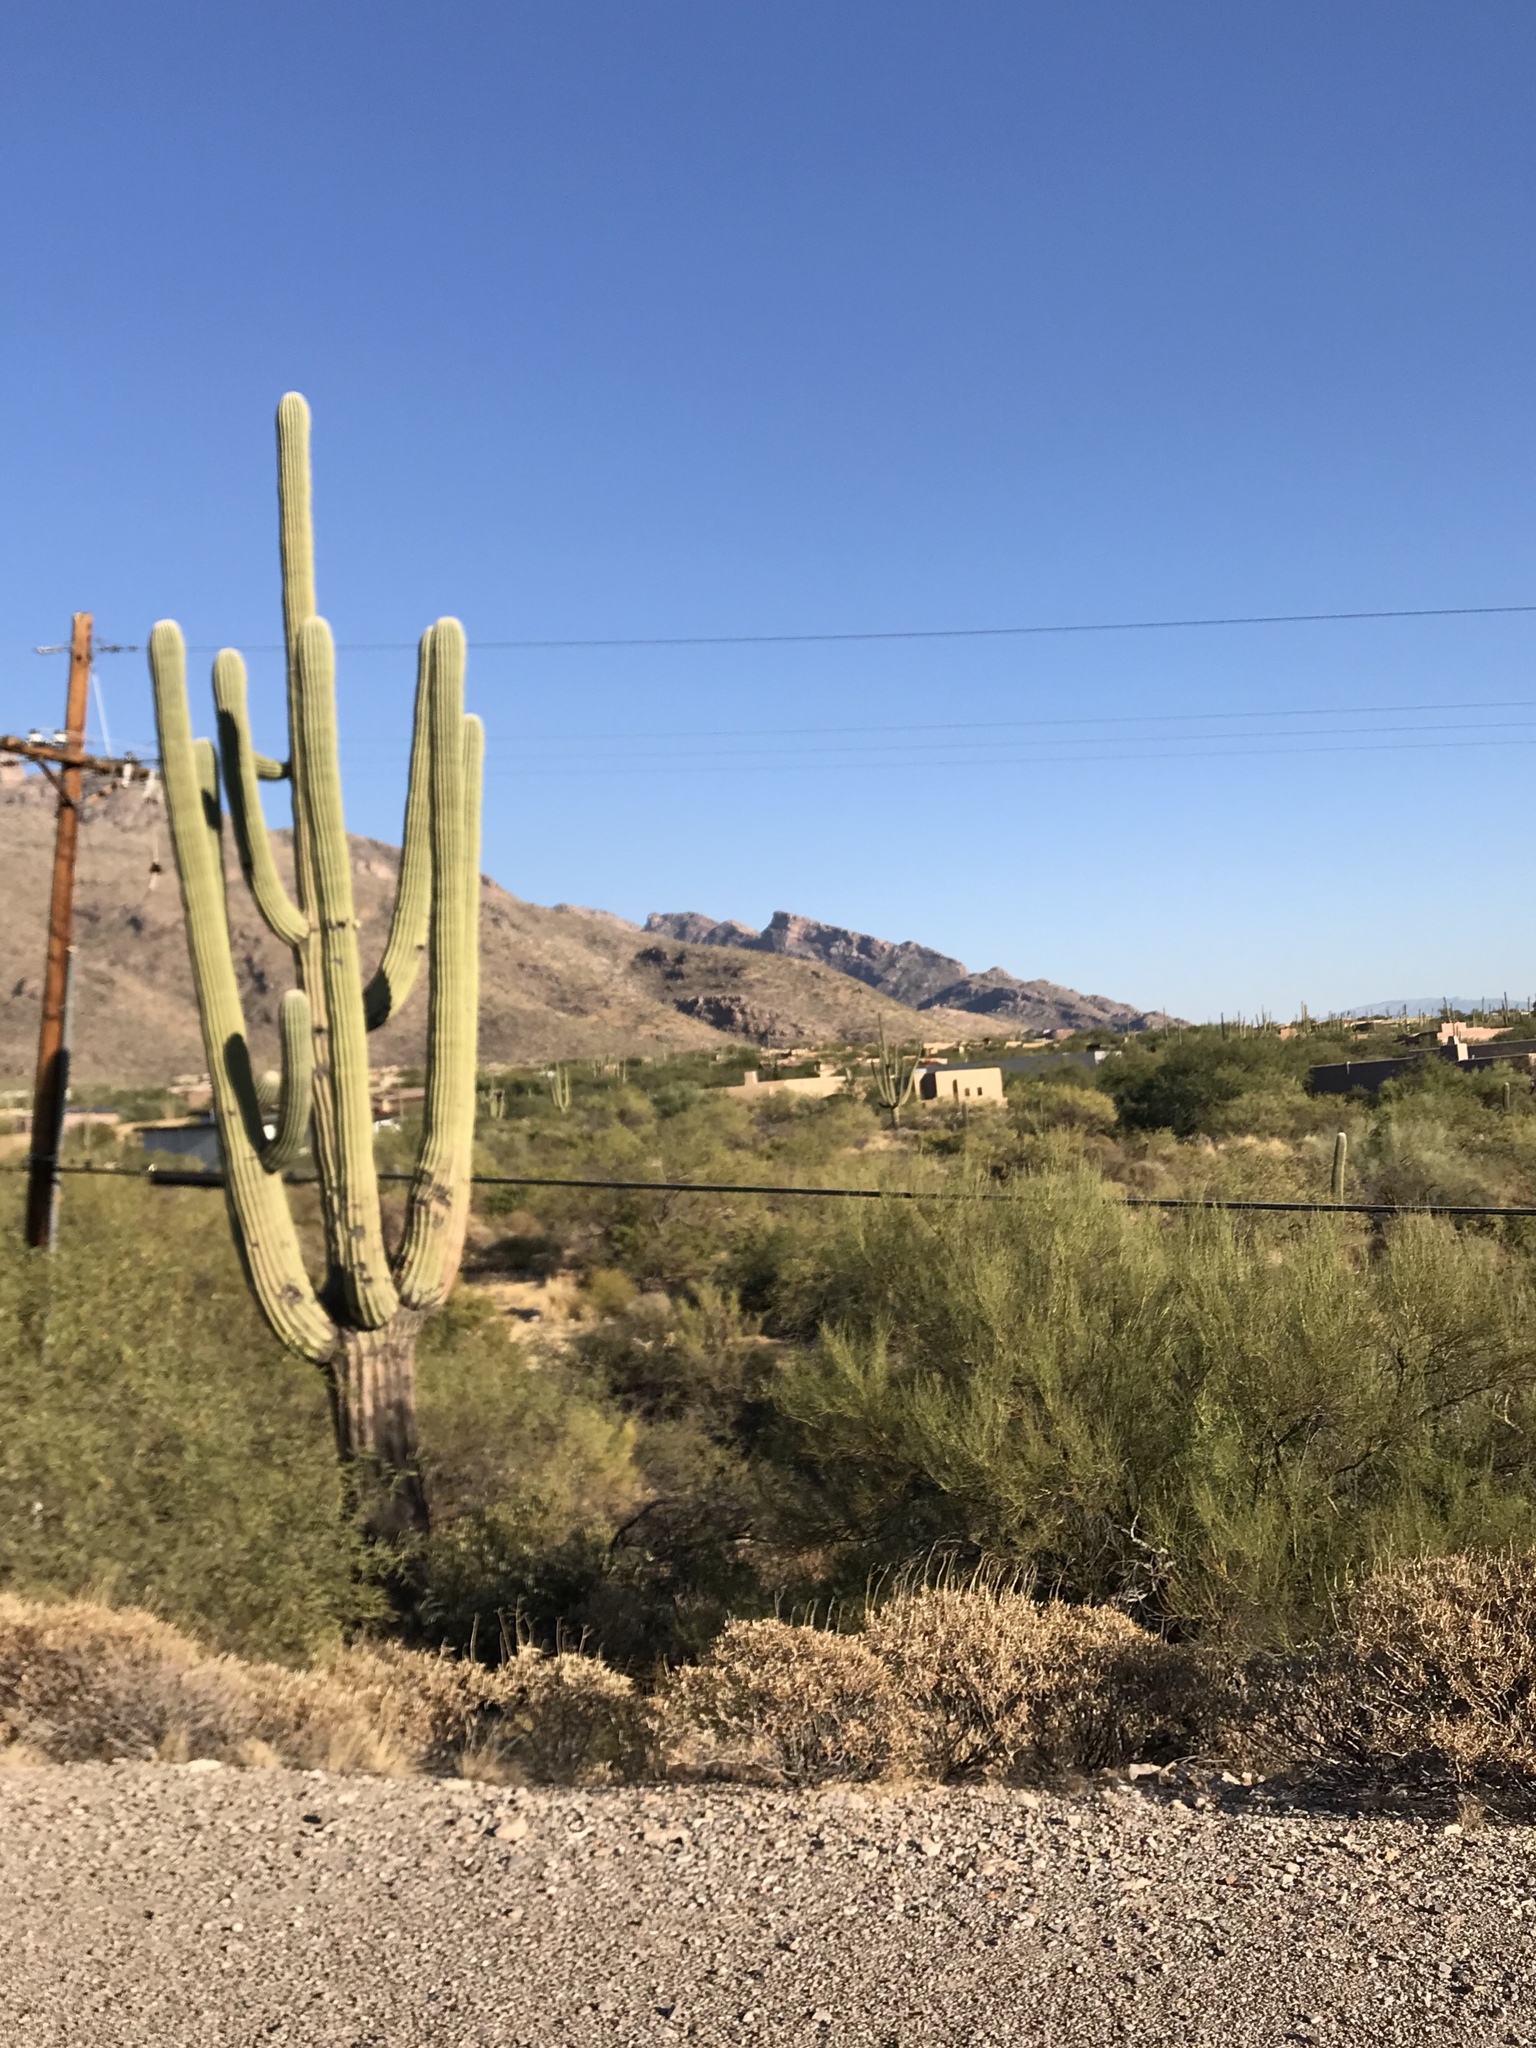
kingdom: Plantae
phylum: Tracheophyta
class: Magnoliopsida
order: Caryophyllales
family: Cactaceae
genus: Carnegiea
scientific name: Carnegiea gigantea
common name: Saguaro
